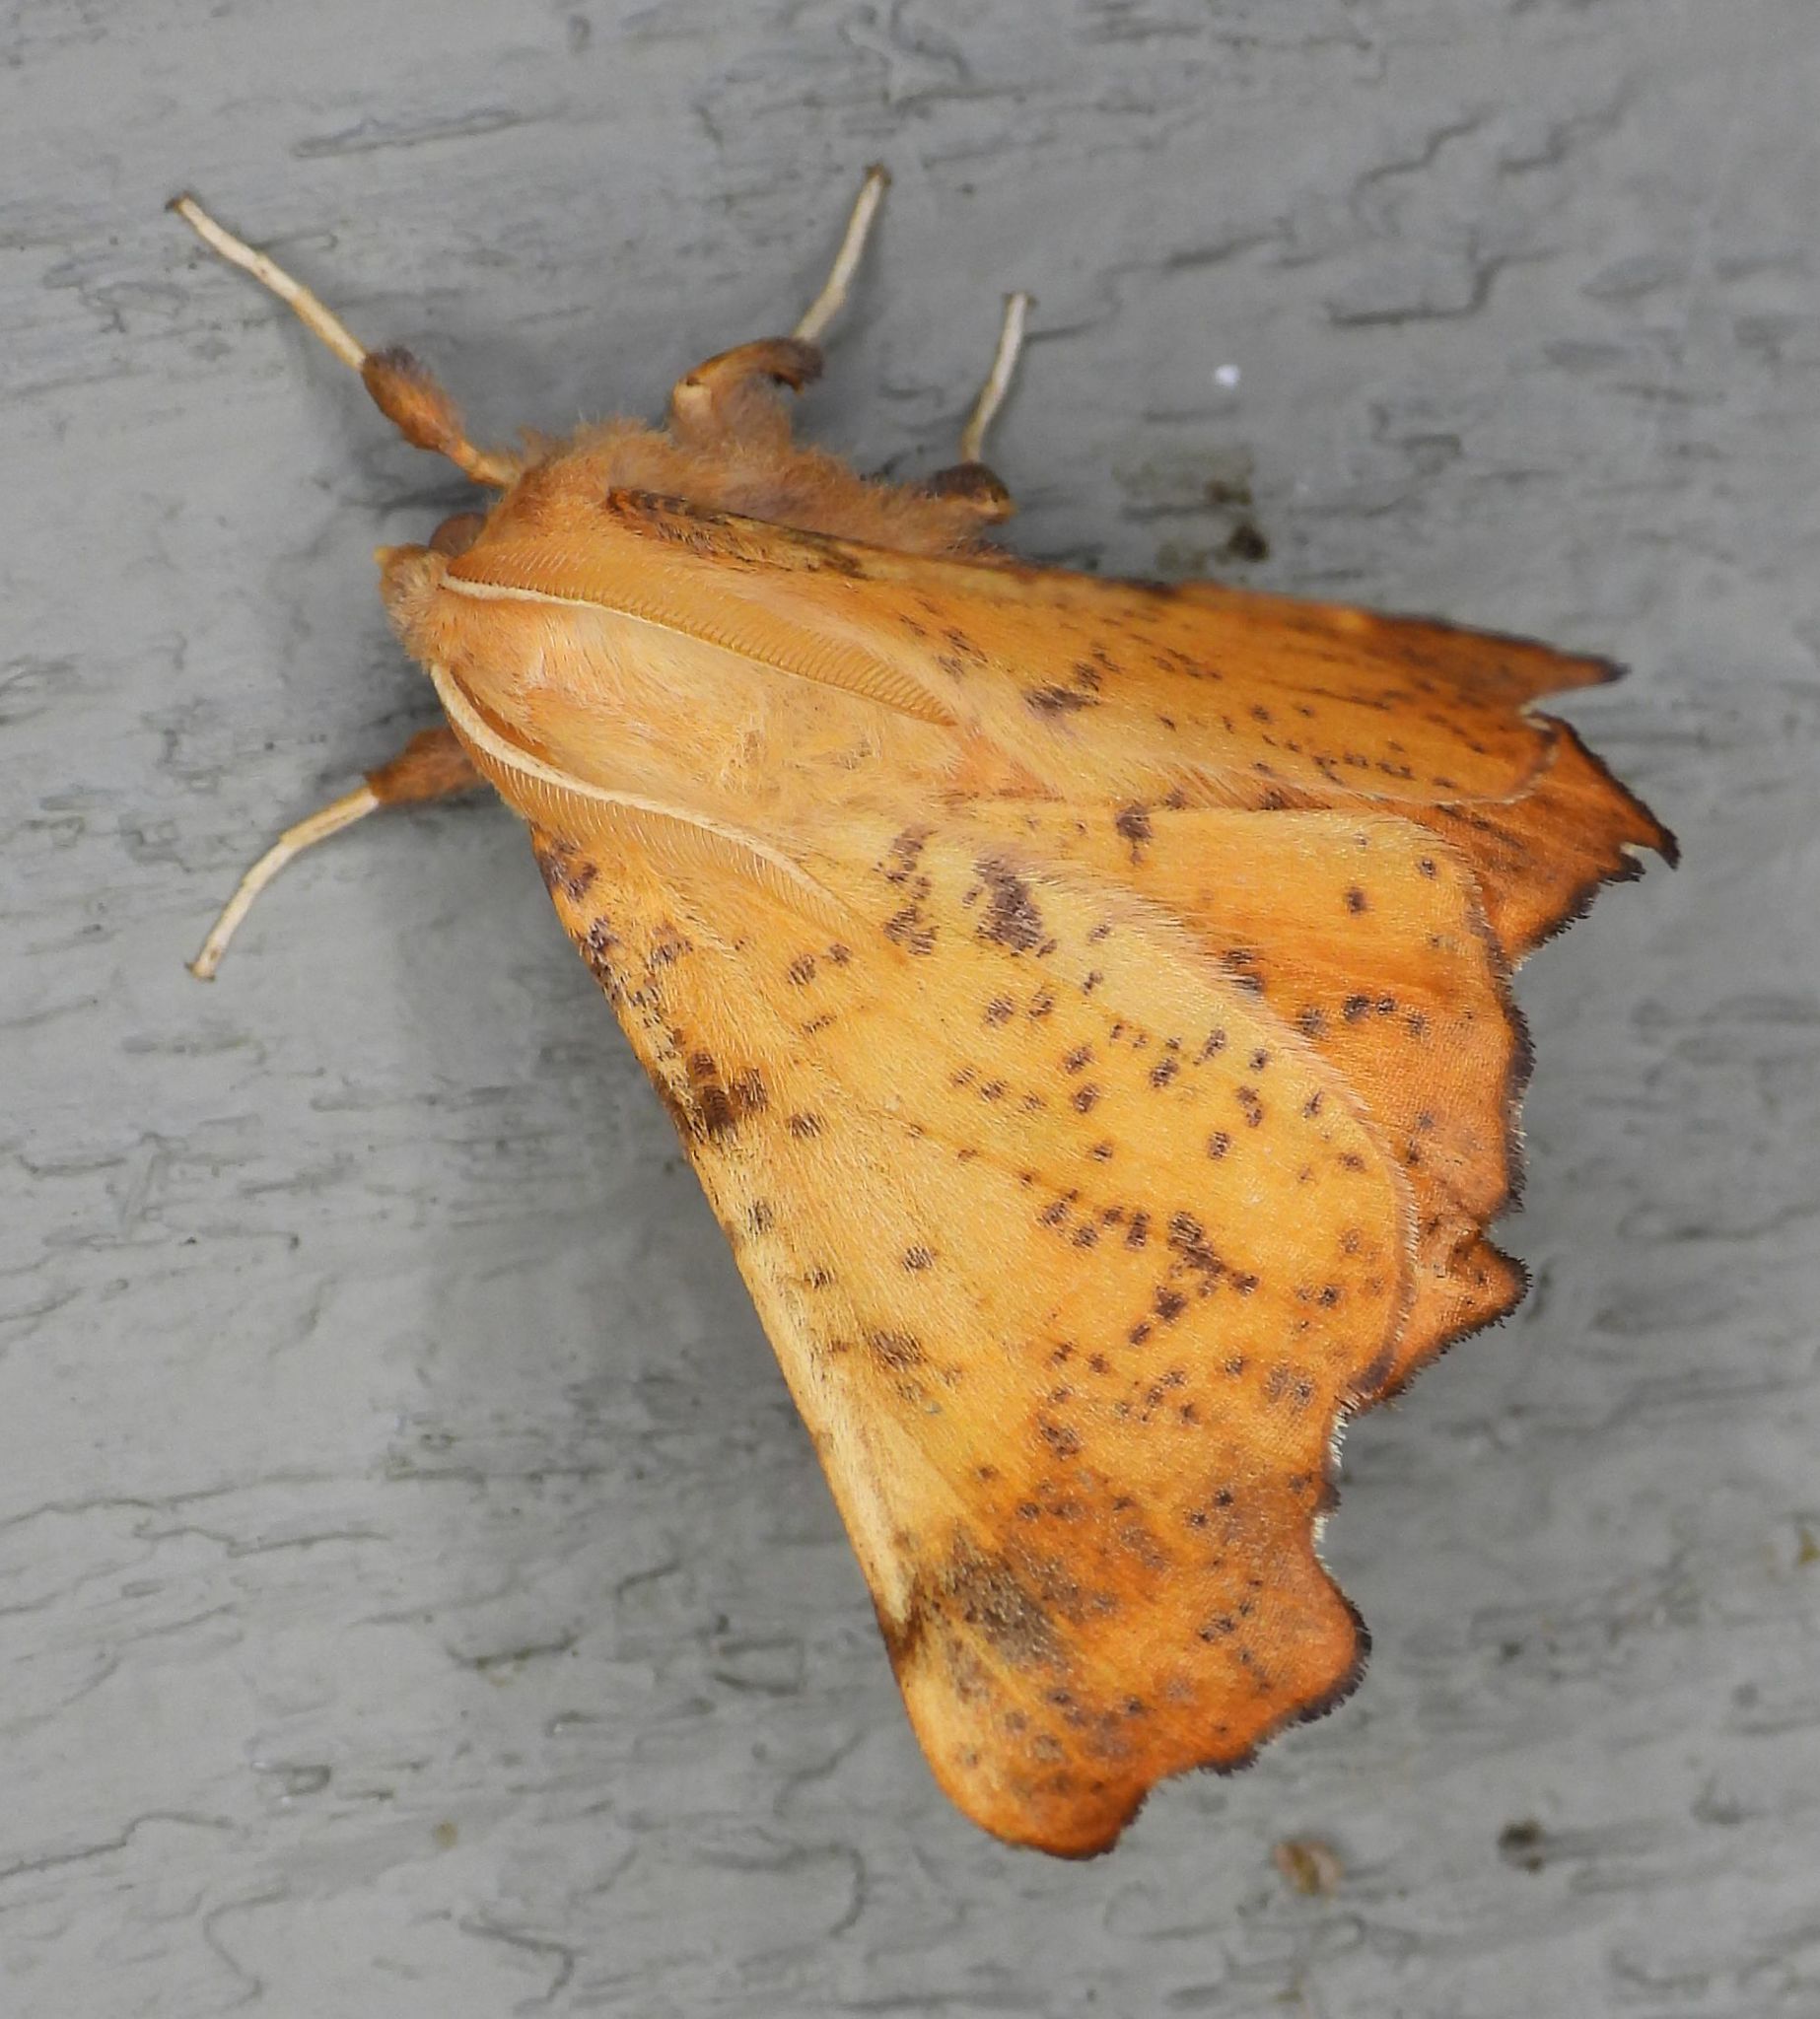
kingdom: Animalia
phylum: Arthropoda
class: Insecta
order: Lepidoptera
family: Geometridae
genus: Ennomos
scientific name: Ennomos magnaria
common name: Maple spanworm
